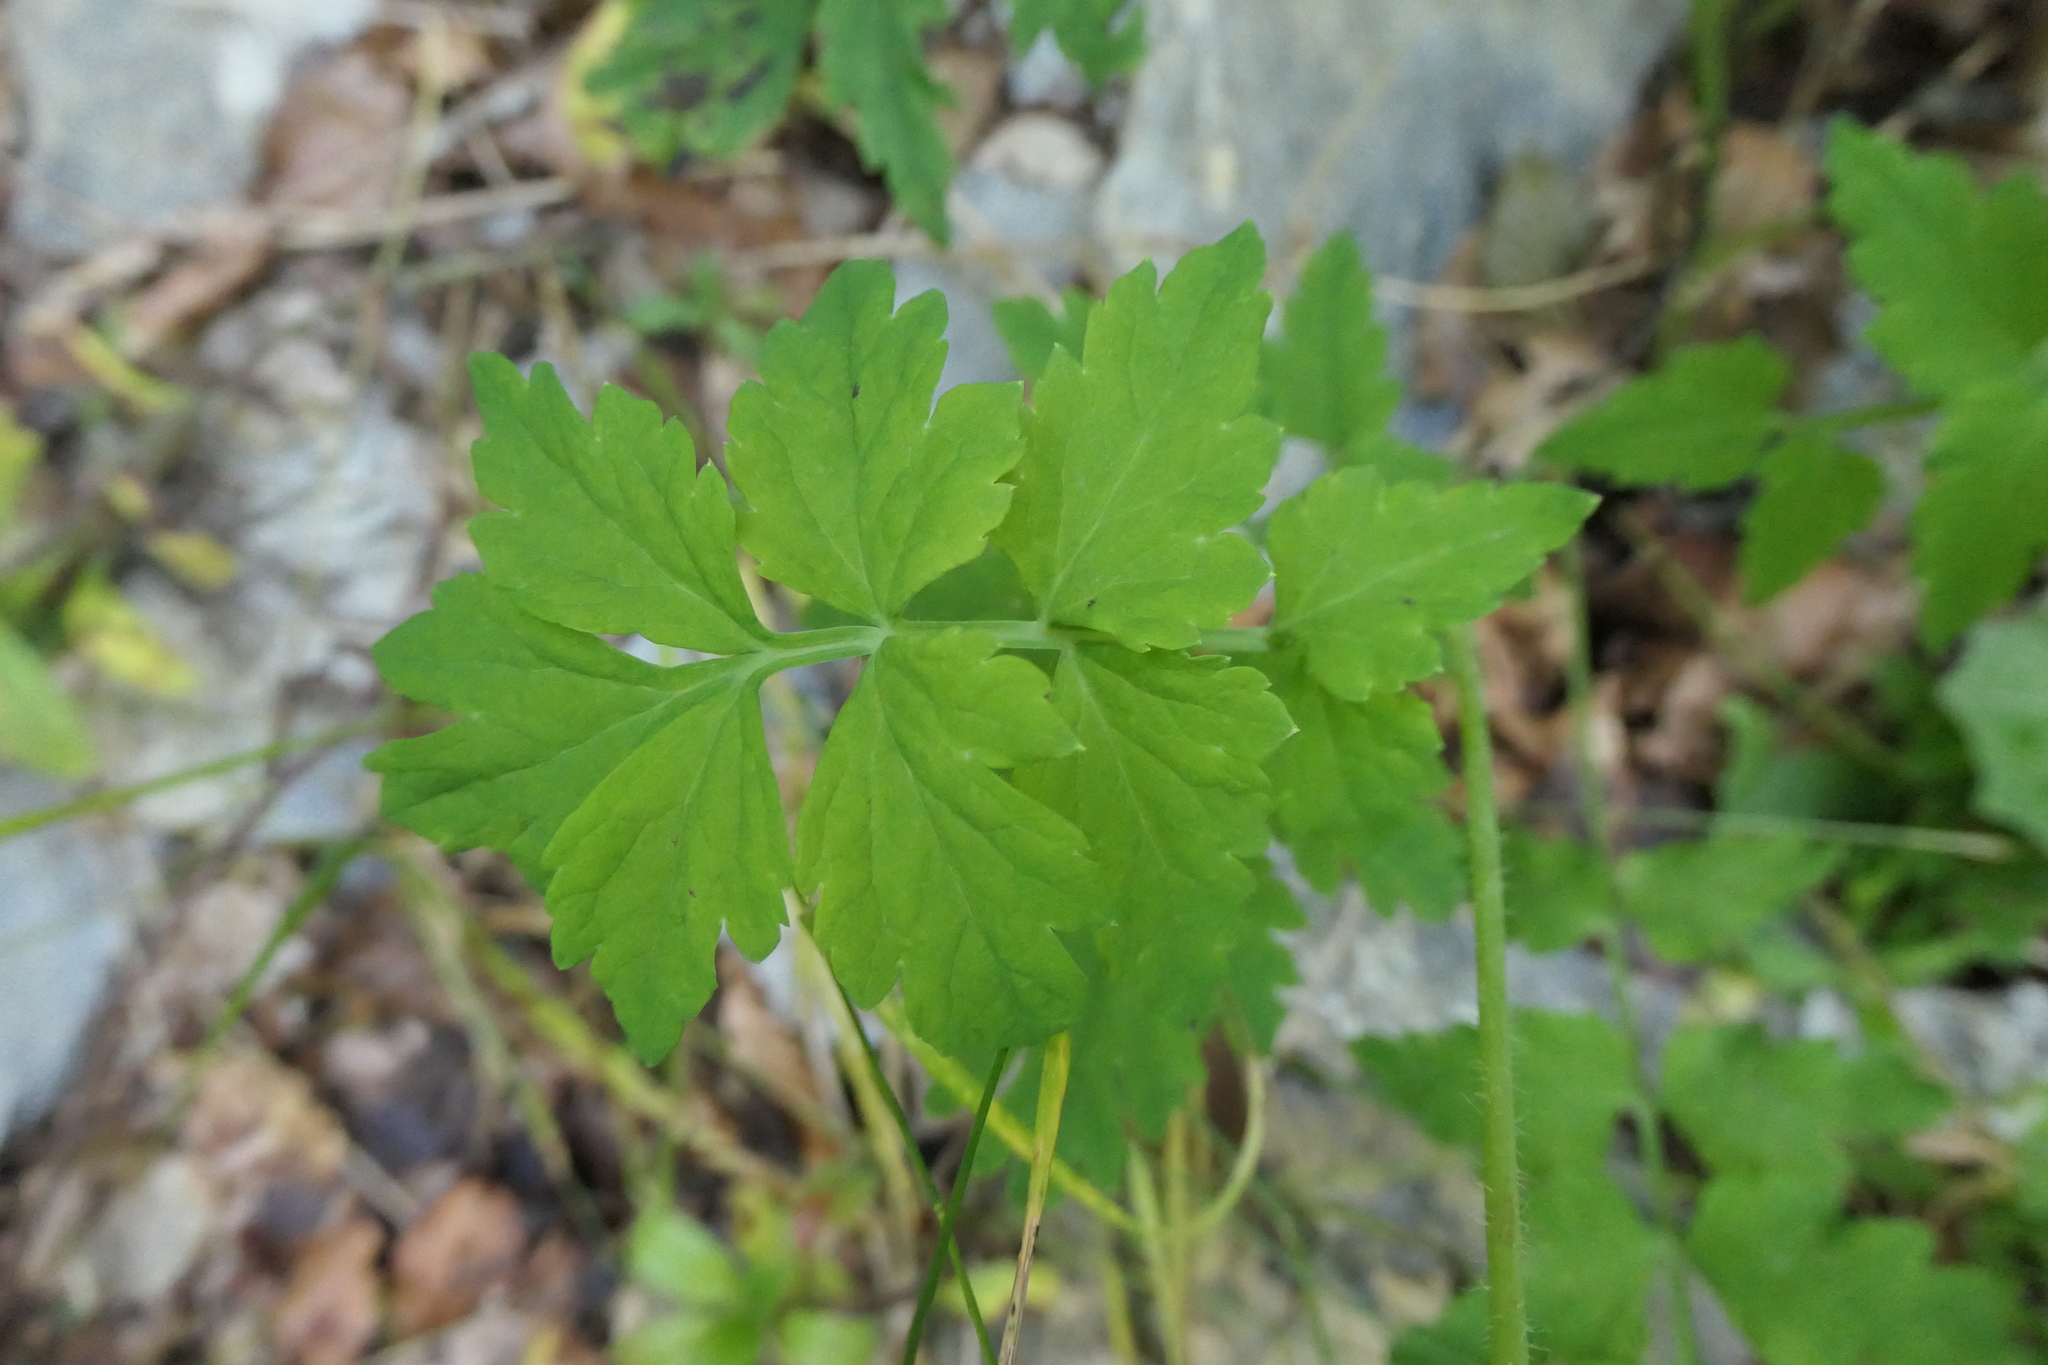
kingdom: Plantae
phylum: Tracheophyta
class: Magnoliopsida
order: Ranunculales
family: Papaveraceae
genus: Papaver
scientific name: Papaver cambricum
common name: Poppy
